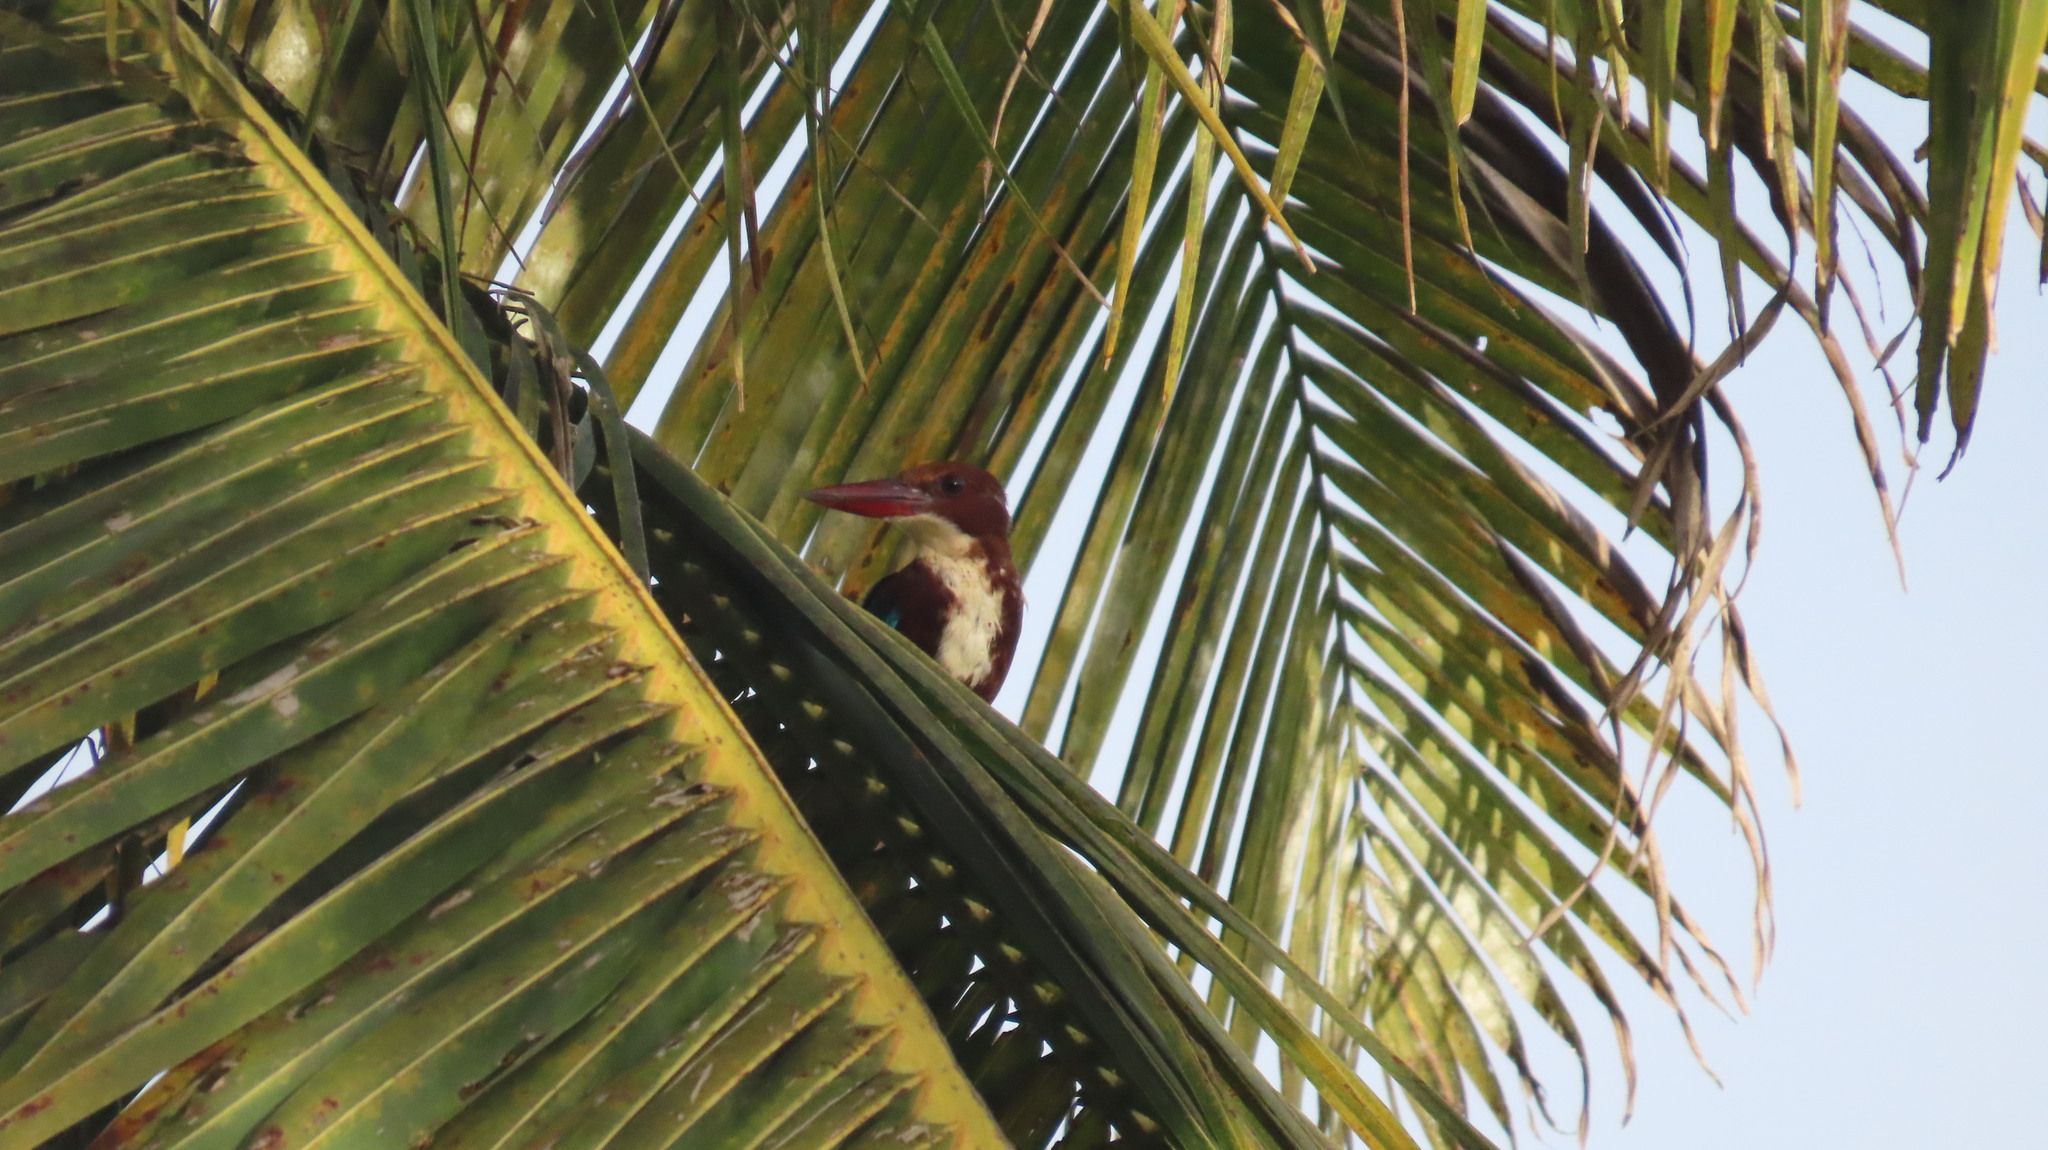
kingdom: Animalia
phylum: Chordata
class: Aves
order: Coraciiformes
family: Alcedinidae
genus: Halcyon
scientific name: Halcyon smyrnensis
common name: White-throated kingfisher
